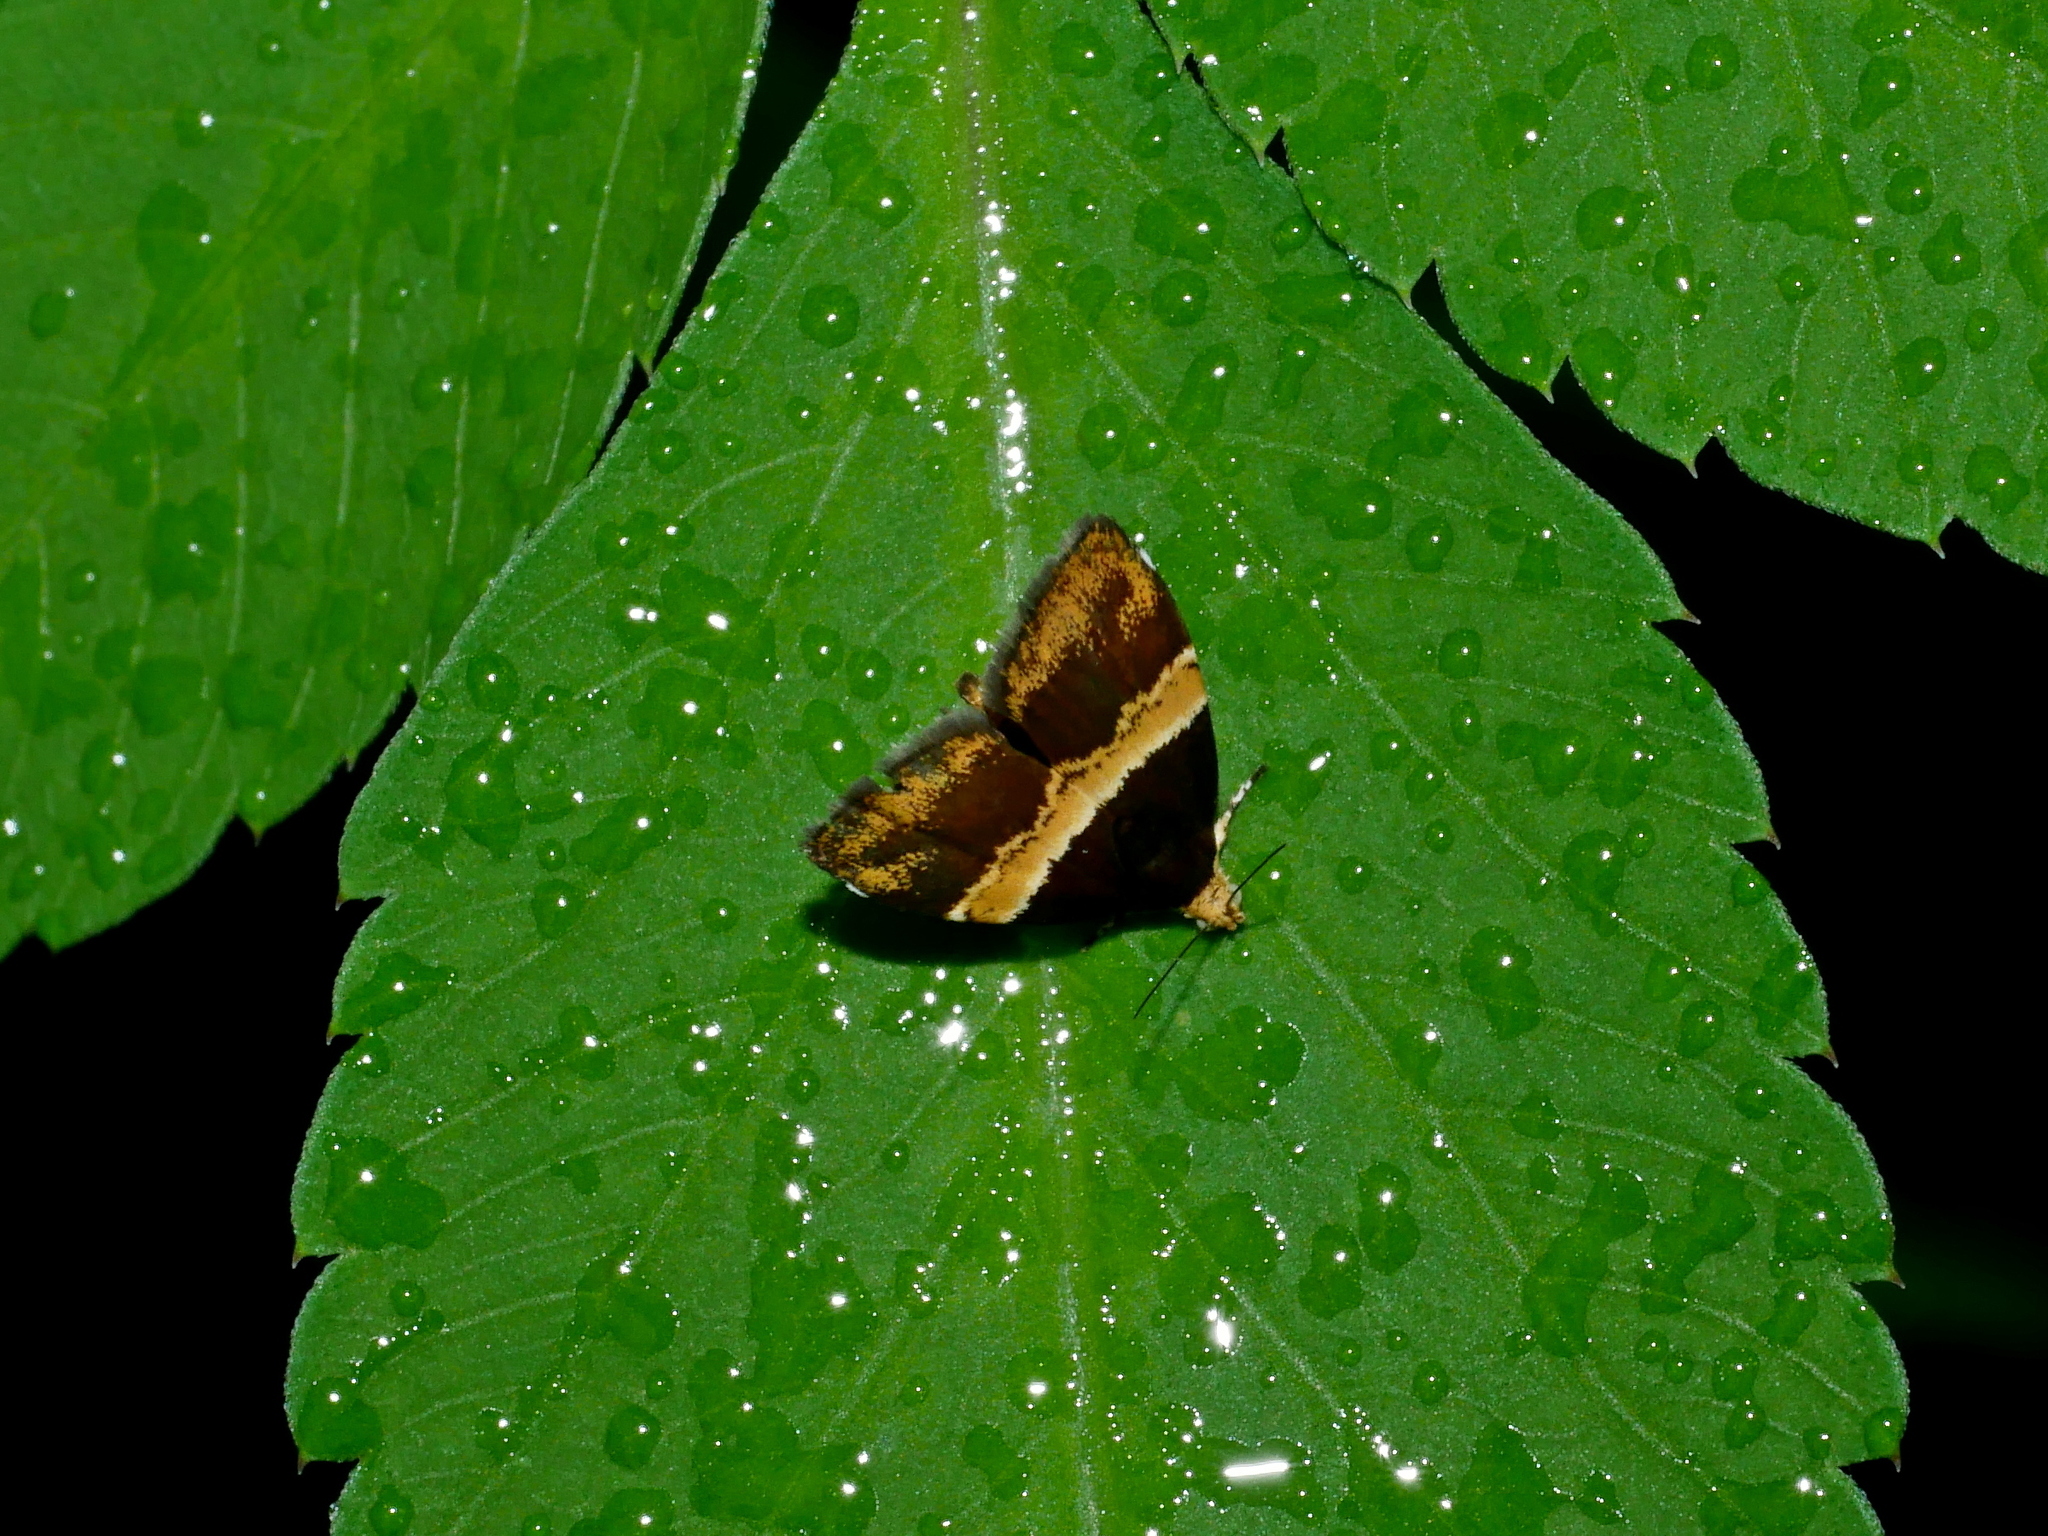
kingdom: Animalia
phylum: Arthropoda
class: Insecta
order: Lepidoptera
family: Choreutidae
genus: Choreutis
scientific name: Choreutis basalis
